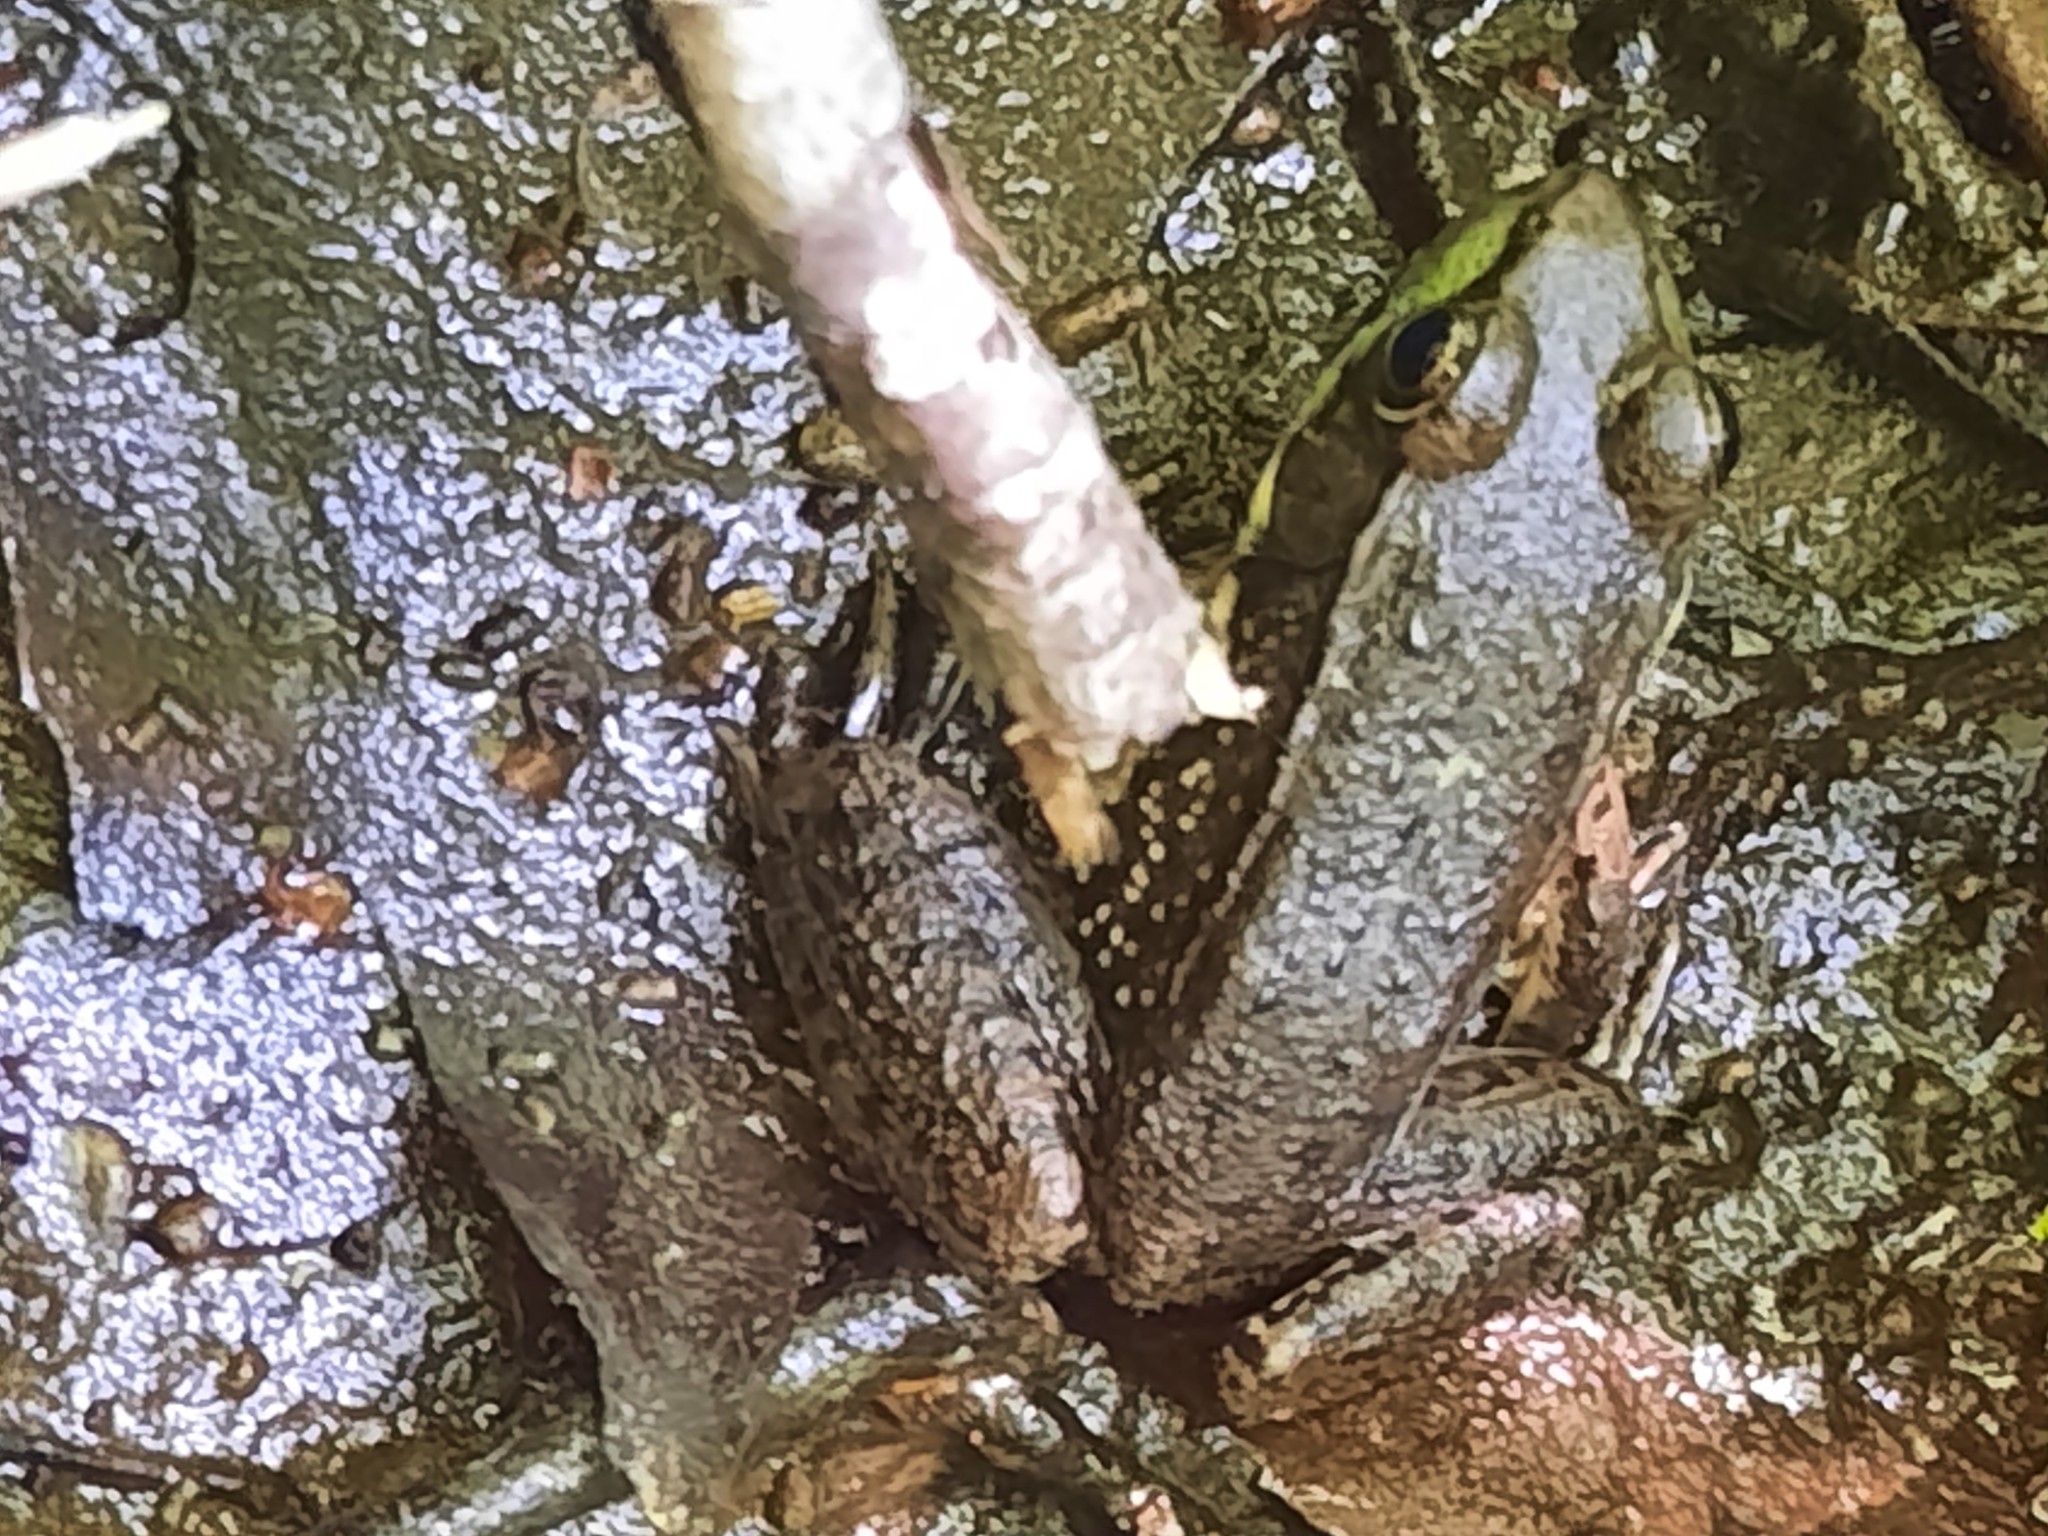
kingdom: Animalia
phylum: Chordata
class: Amphibia
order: Anura
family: Ranidae
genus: Lithobates
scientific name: Lithobates clamitans
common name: Green frog
